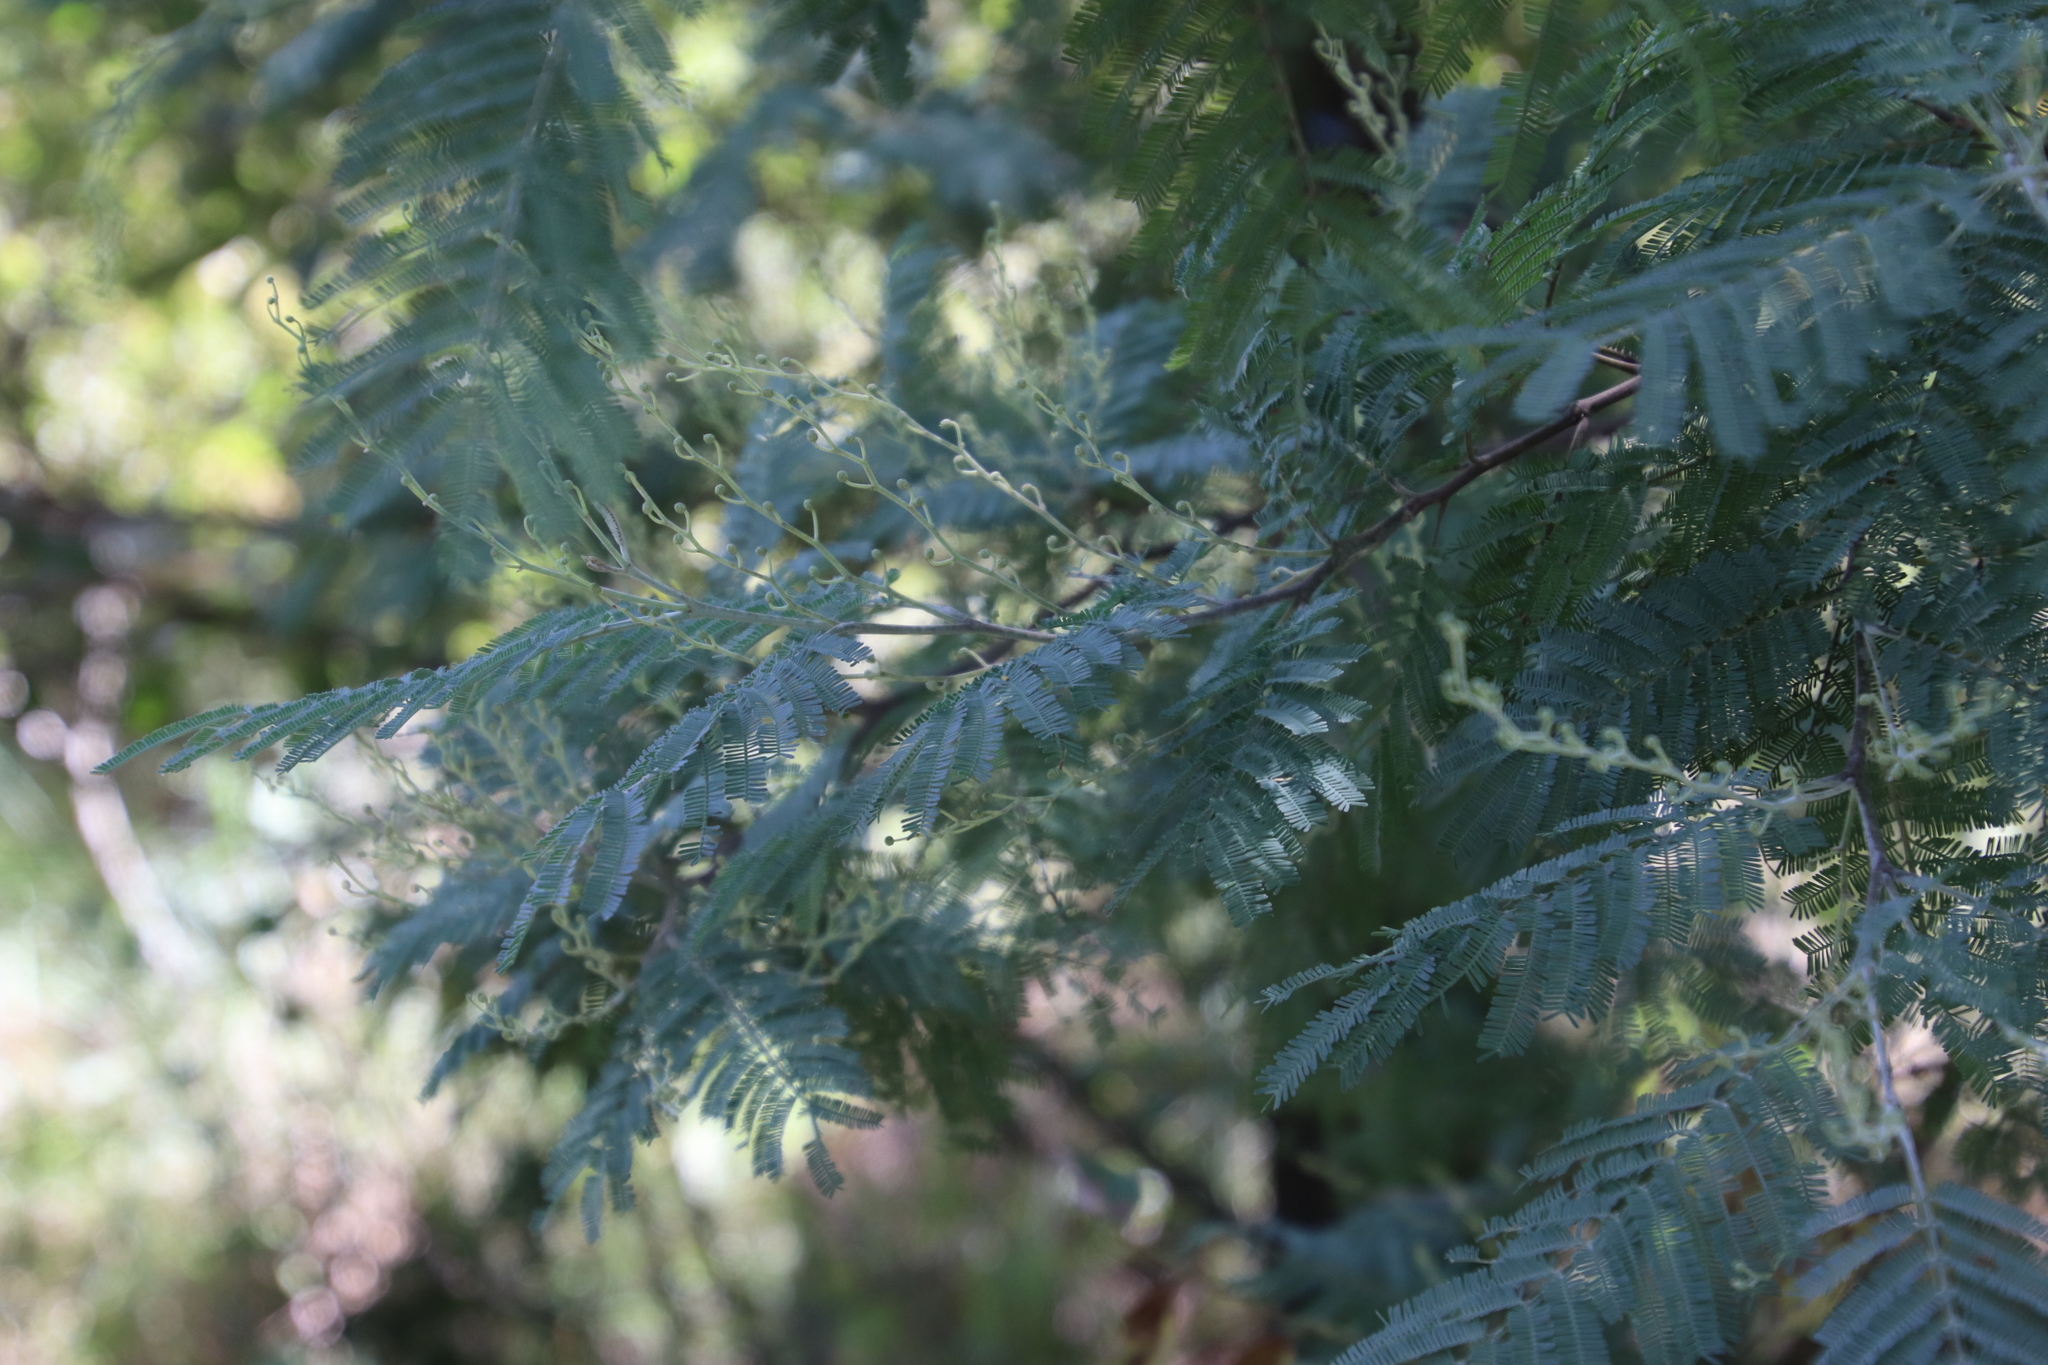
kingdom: Plantae
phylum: Tracheophyta
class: Magnoliopsida
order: Fabales
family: Fabaceae
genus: Acacia
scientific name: Acacia dealbata
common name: Silver wattle
